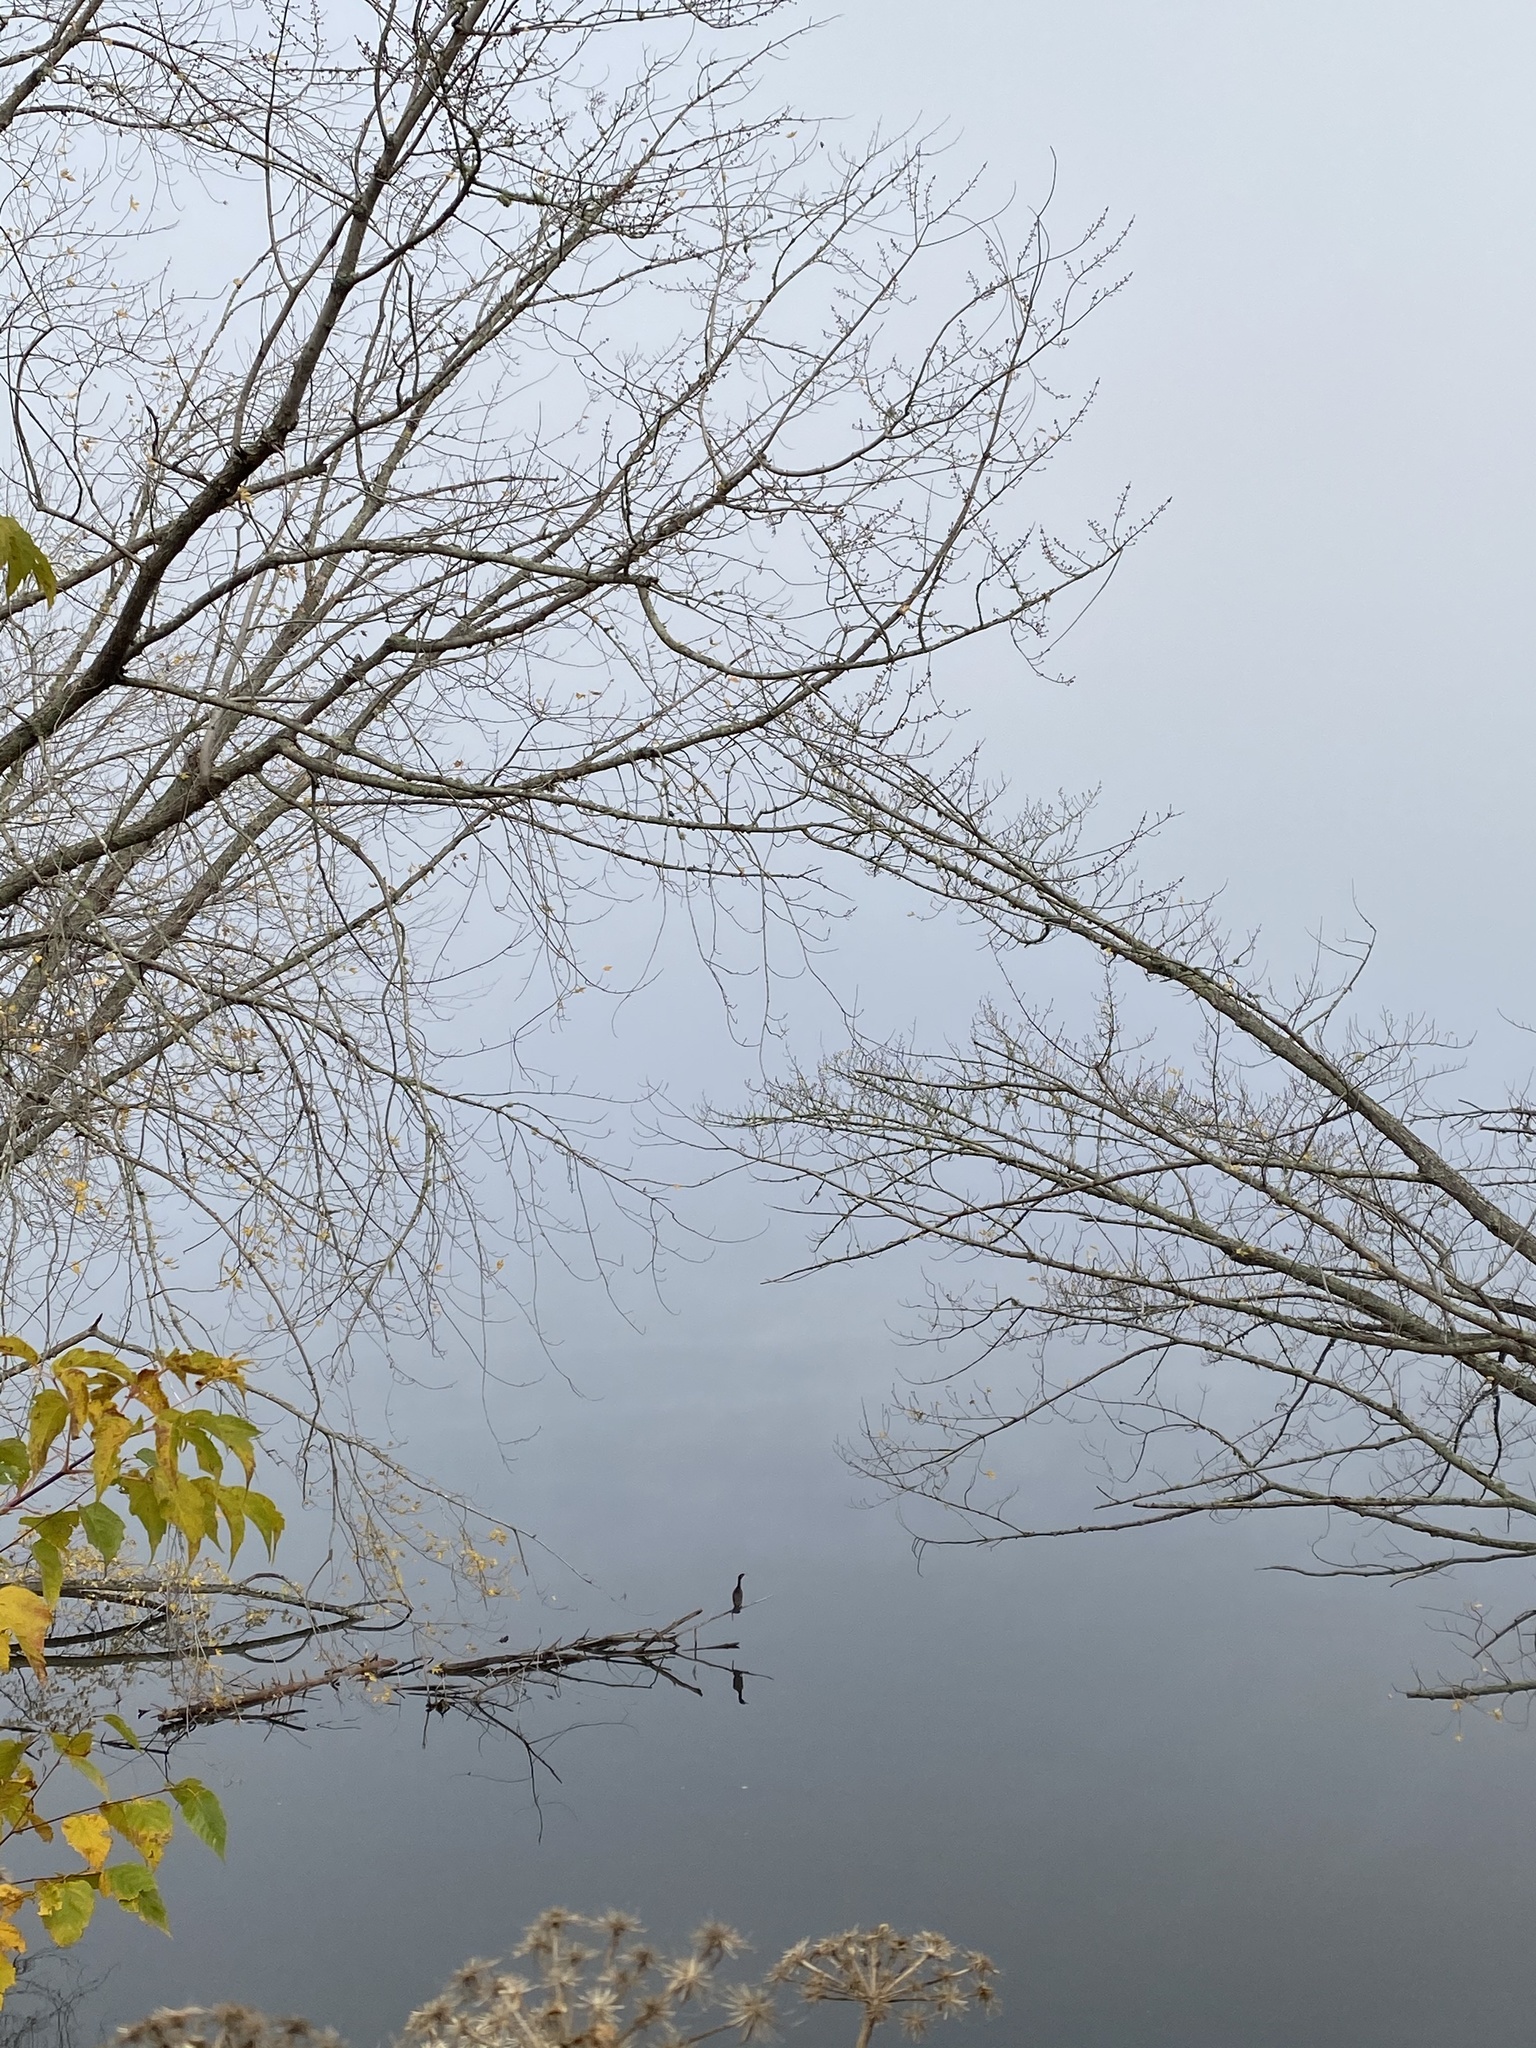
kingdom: Animalia
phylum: Chordata
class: Aves
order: Suliformes
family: Phalacrocoracidae
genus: Phalacrocorax
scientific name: Phalacrocorax auritus
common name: Double-crested cormorant
